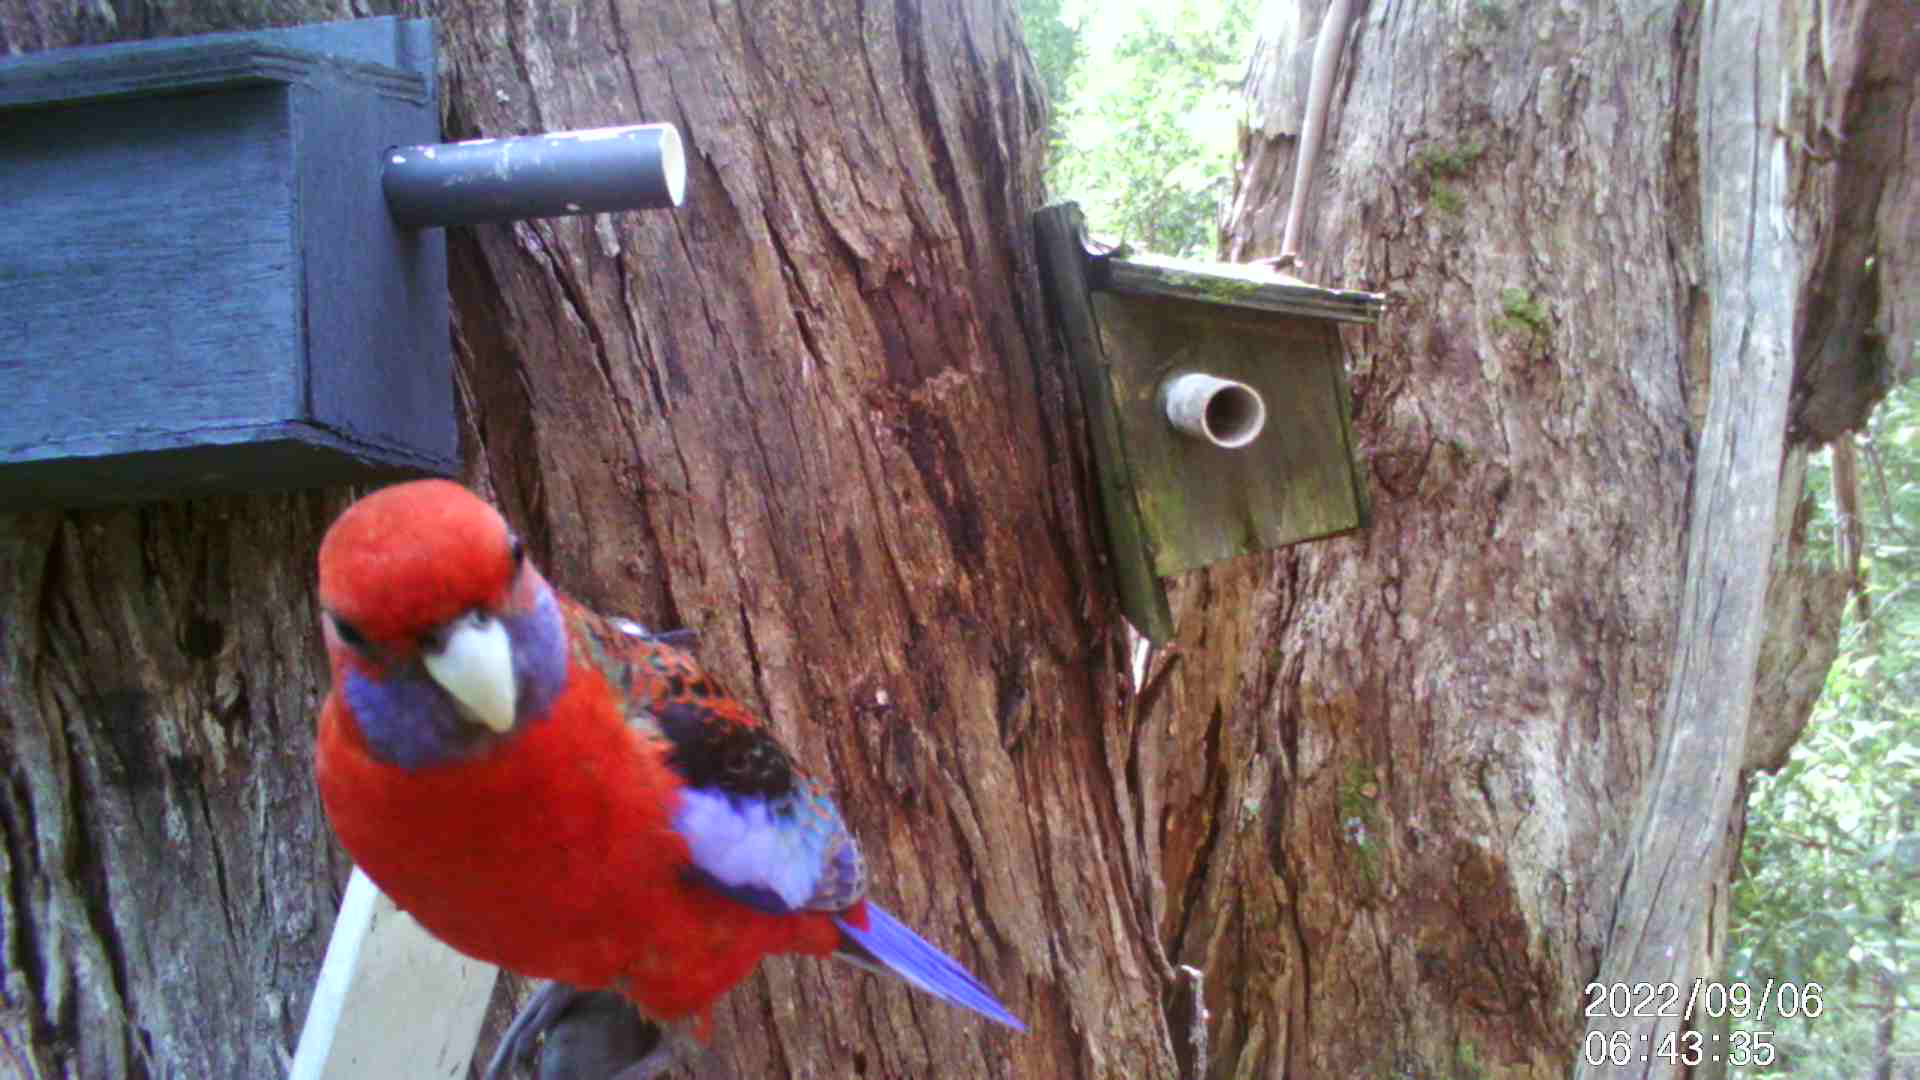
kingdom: Animalia
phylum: Chordata
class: Aves
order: Psittaciformes
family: Psittacidae
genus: Platycercus
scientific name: Platycercus elegans
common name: Crimson rosella
